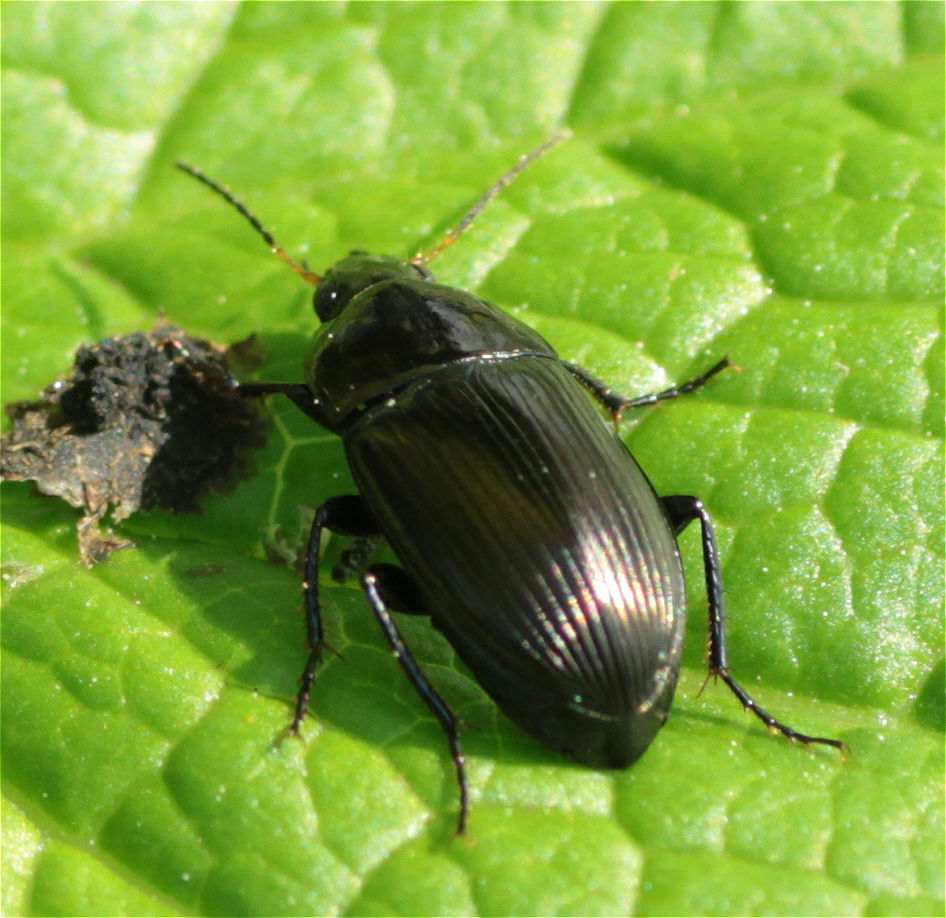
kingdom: Animalia
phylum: Arthropoda
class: Insecta
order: Coleoptera
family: Carabidae
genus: Amara
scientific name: Amara ovata
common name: Ovate harp ground beetle
